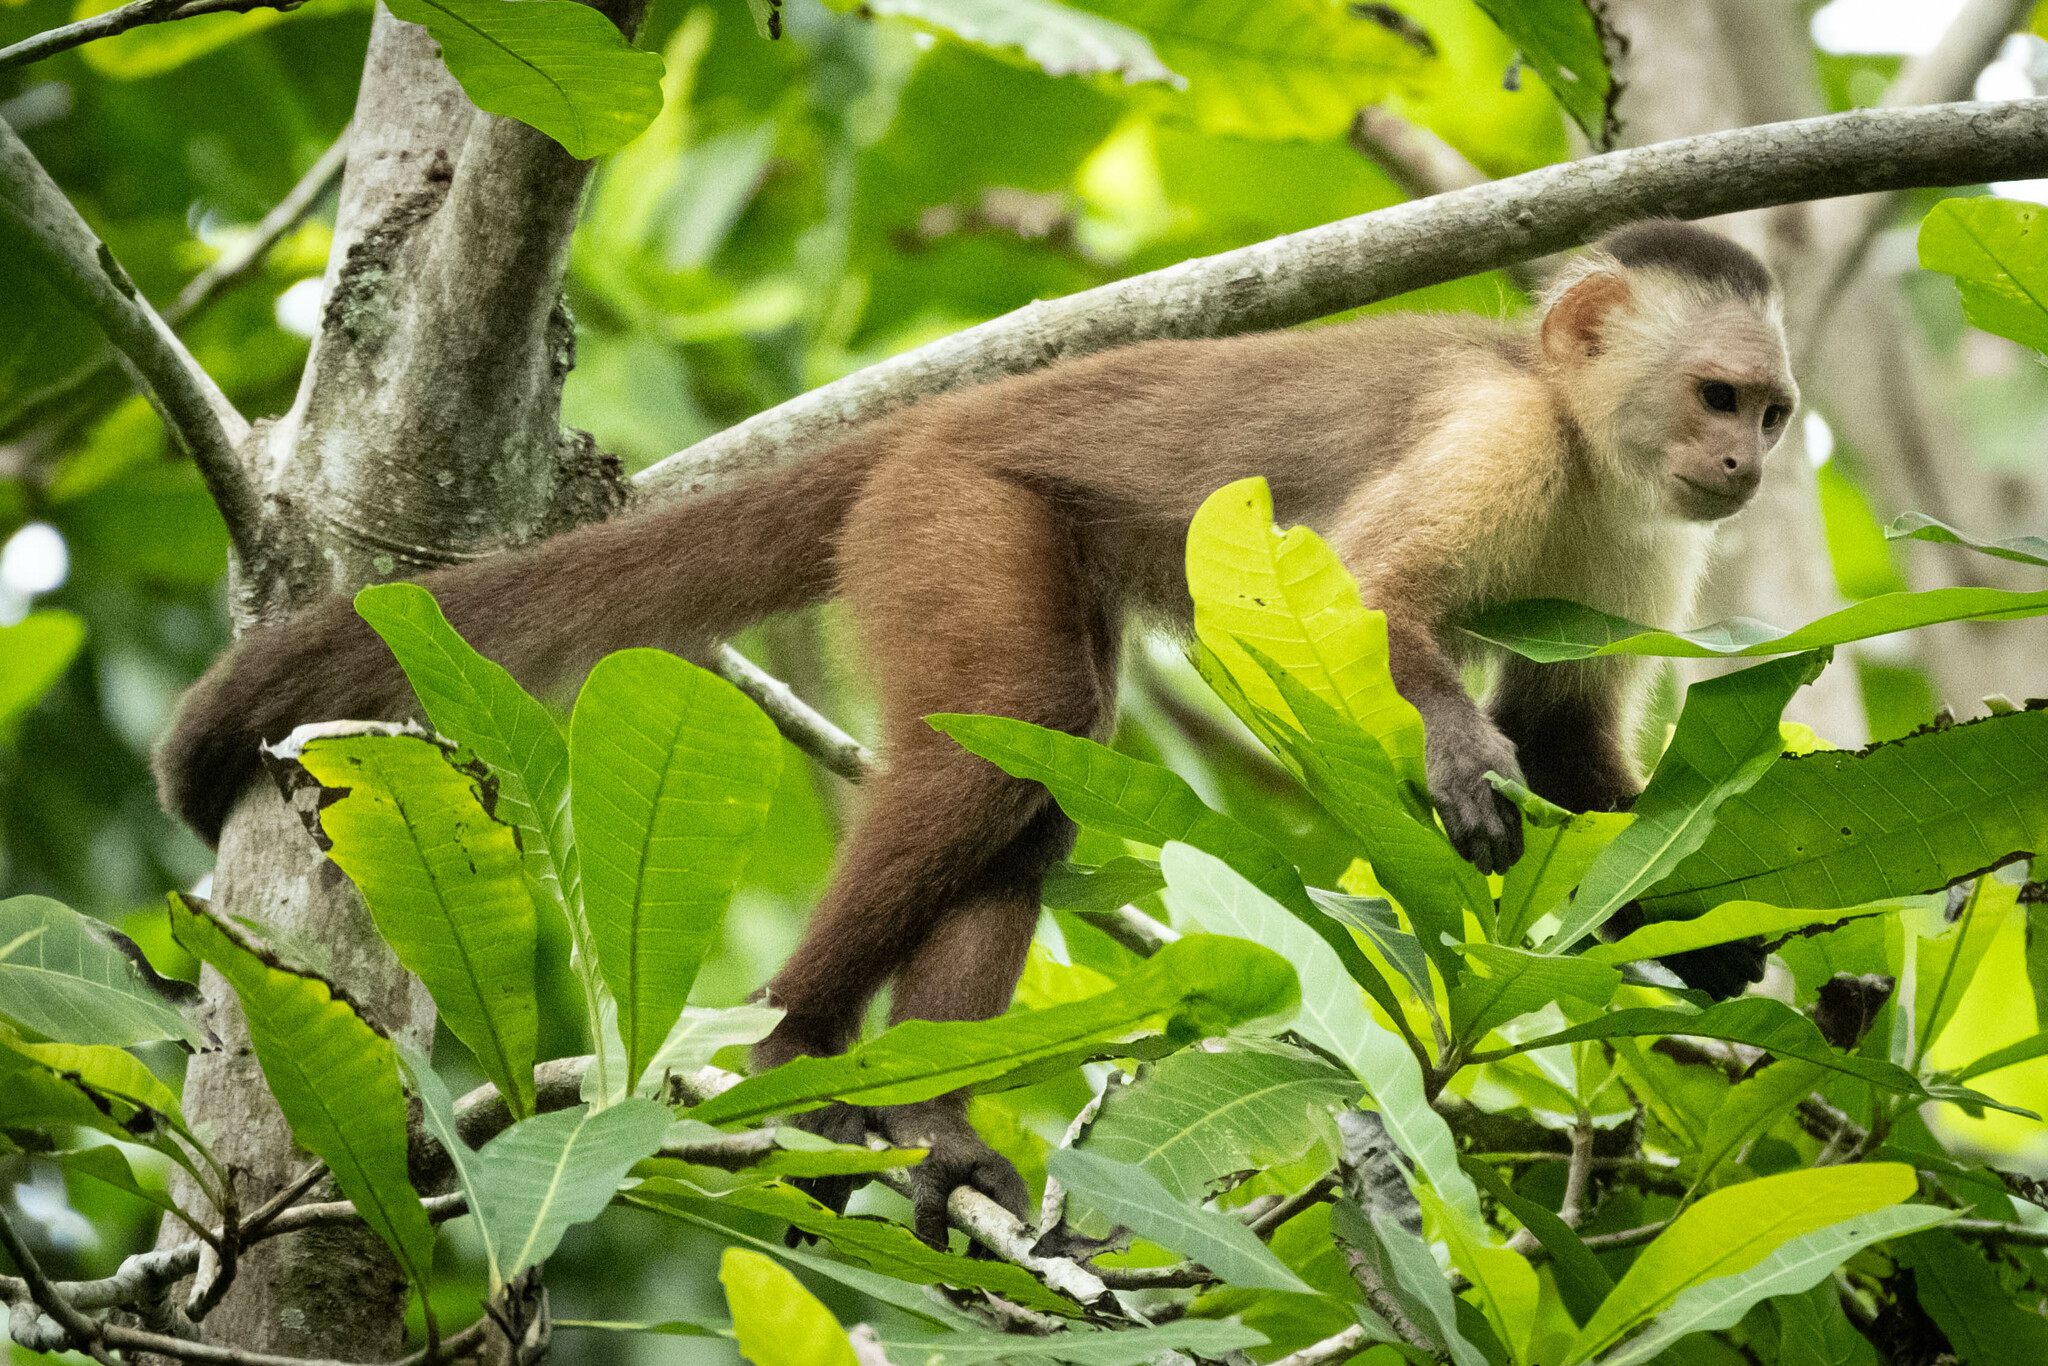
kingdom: Animalia
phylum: Chordata
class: Mammalia
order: Primates
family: Cebidae
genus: Cebus
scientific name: Cebus malitiosus
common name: Santa marta white-fronted capuchin
